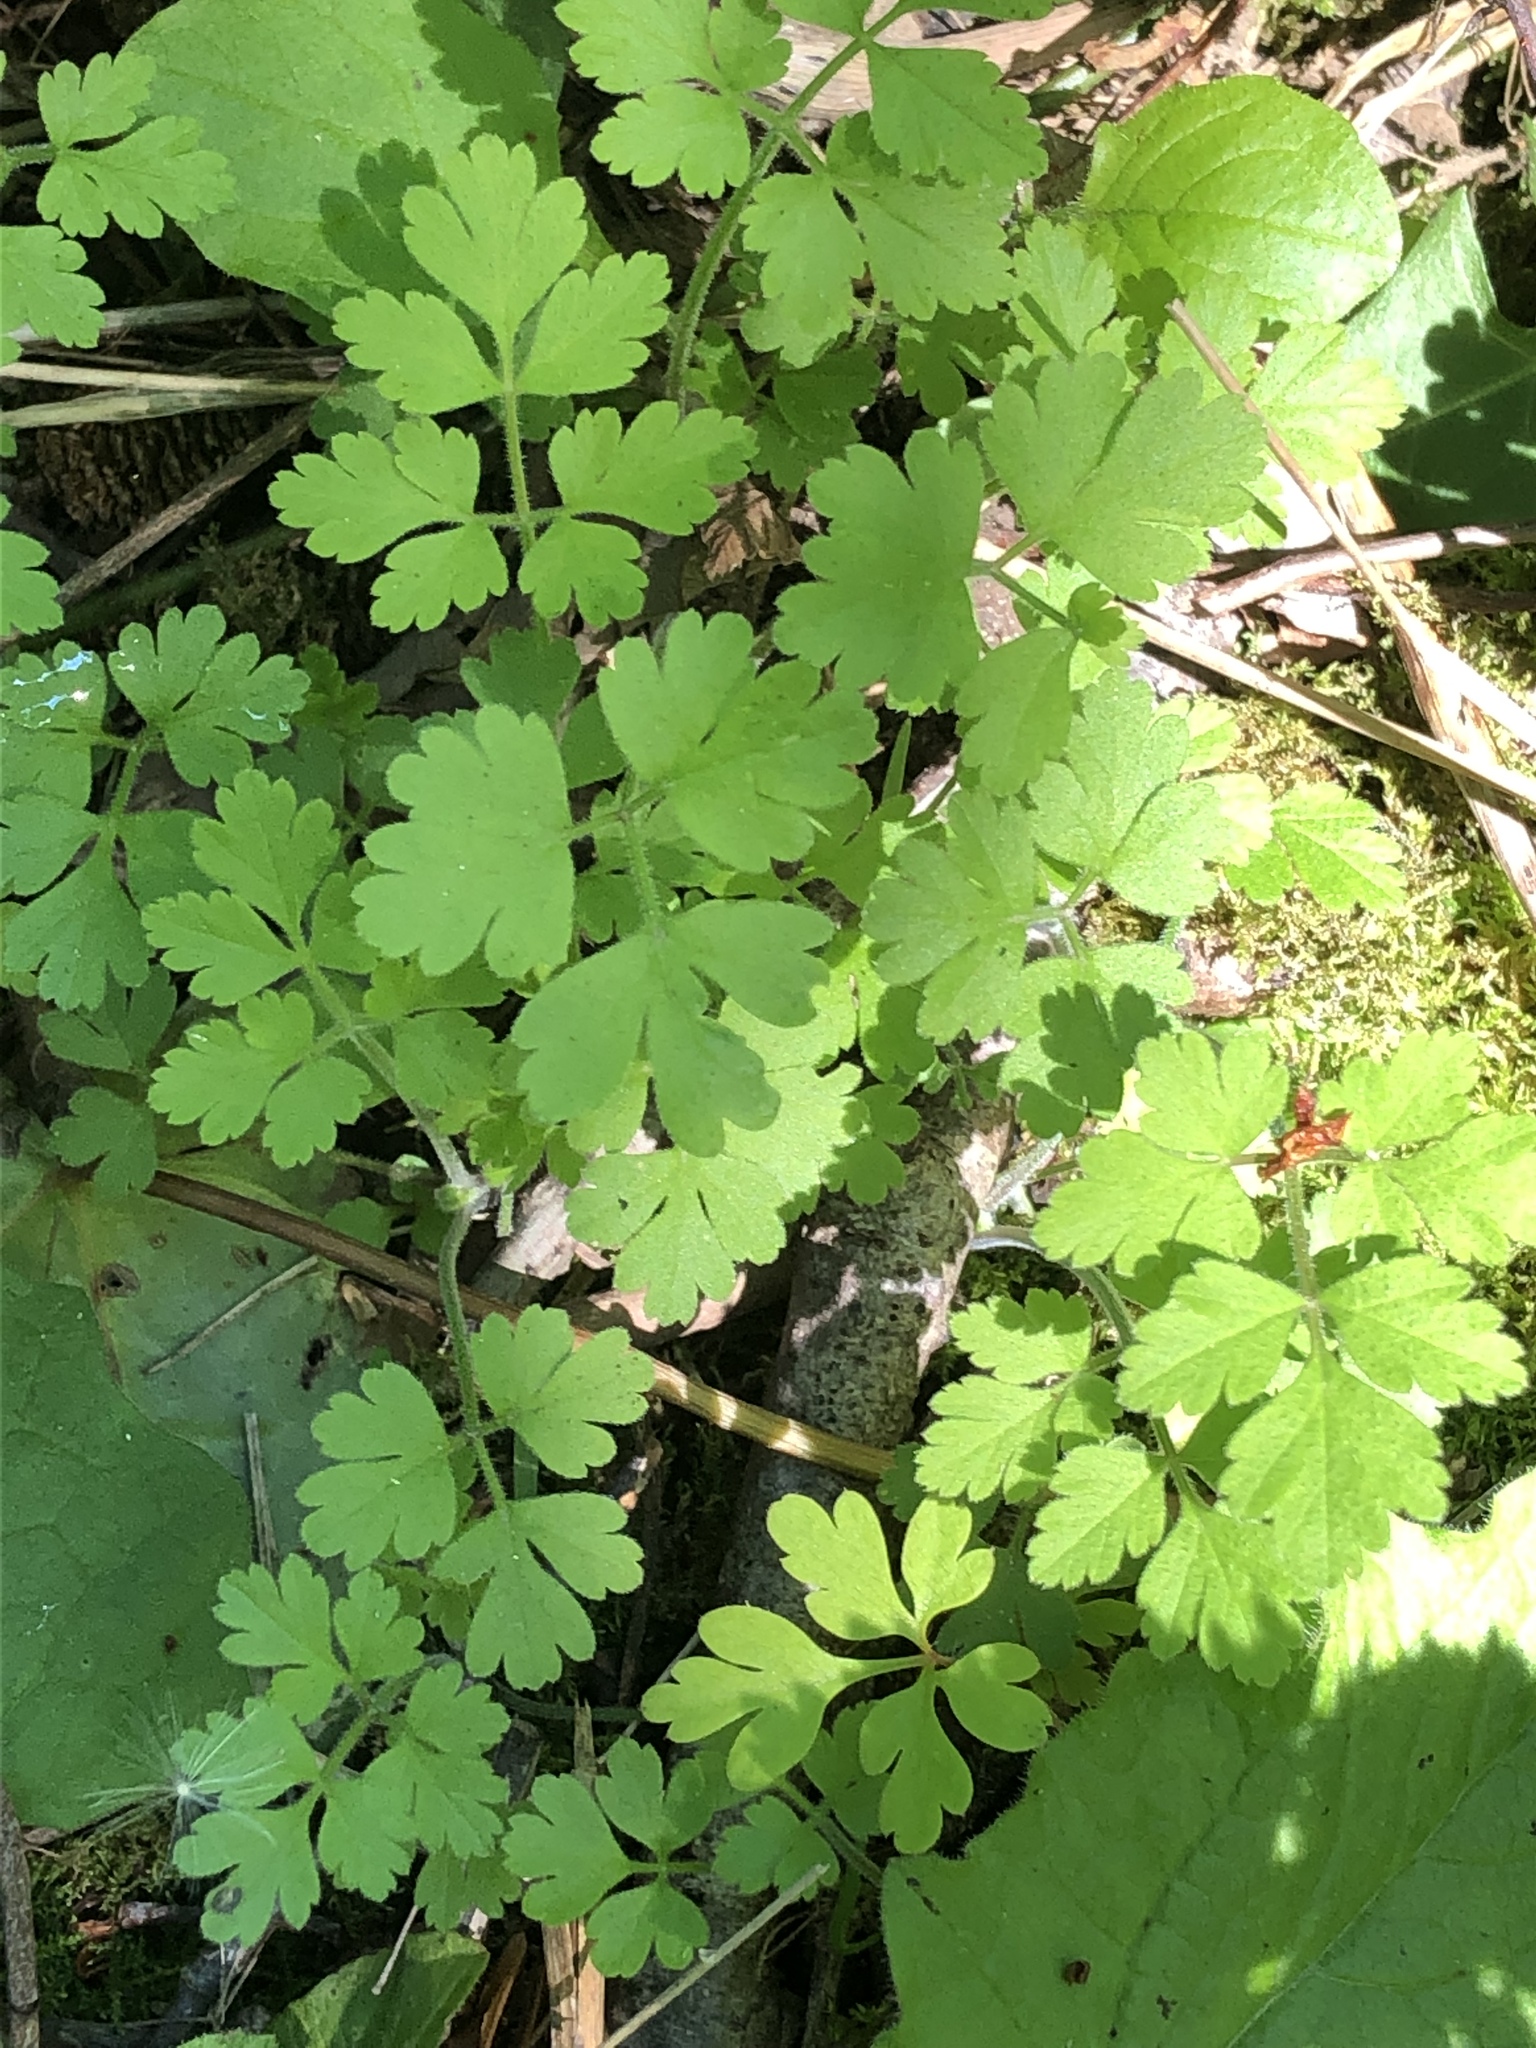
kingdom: Plantae
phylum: Tracheophyta
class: Magnoliopsida
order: Apiales
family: Apiaceae
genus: Chaerophyllum
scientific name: Chaerophyllum temulum
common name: Rough chervil
